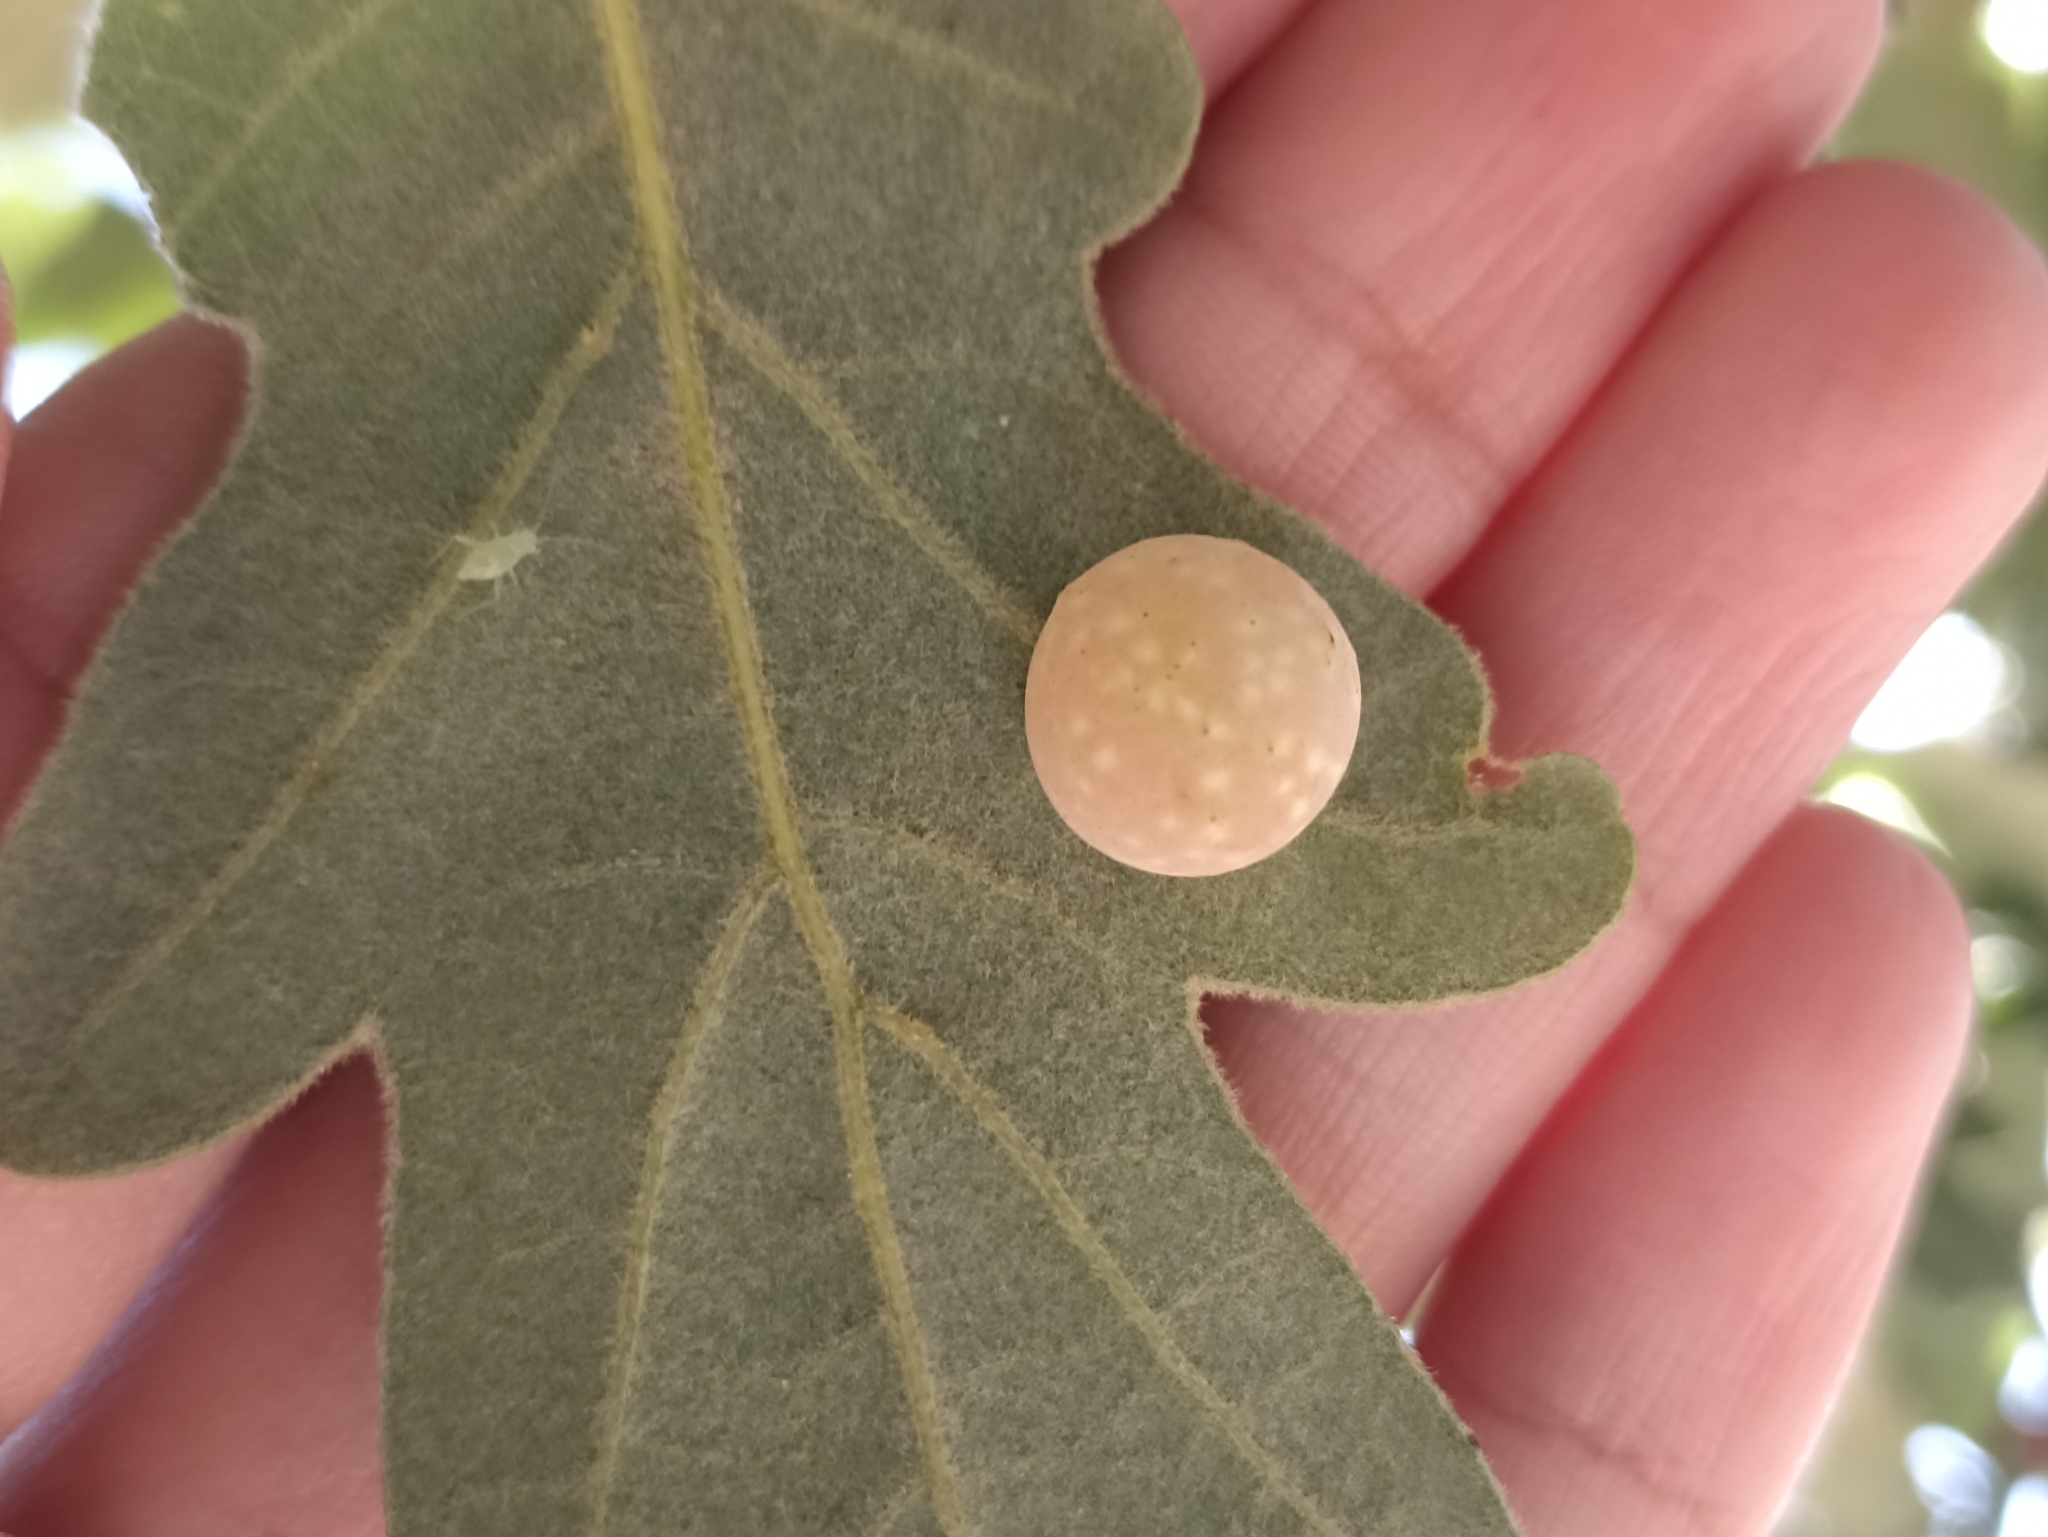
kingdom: Animalia
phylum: Arthropoda
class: Insecta
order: Hymenoptera
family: Cynipidae
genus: Cynips
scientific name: Cynips quercus
